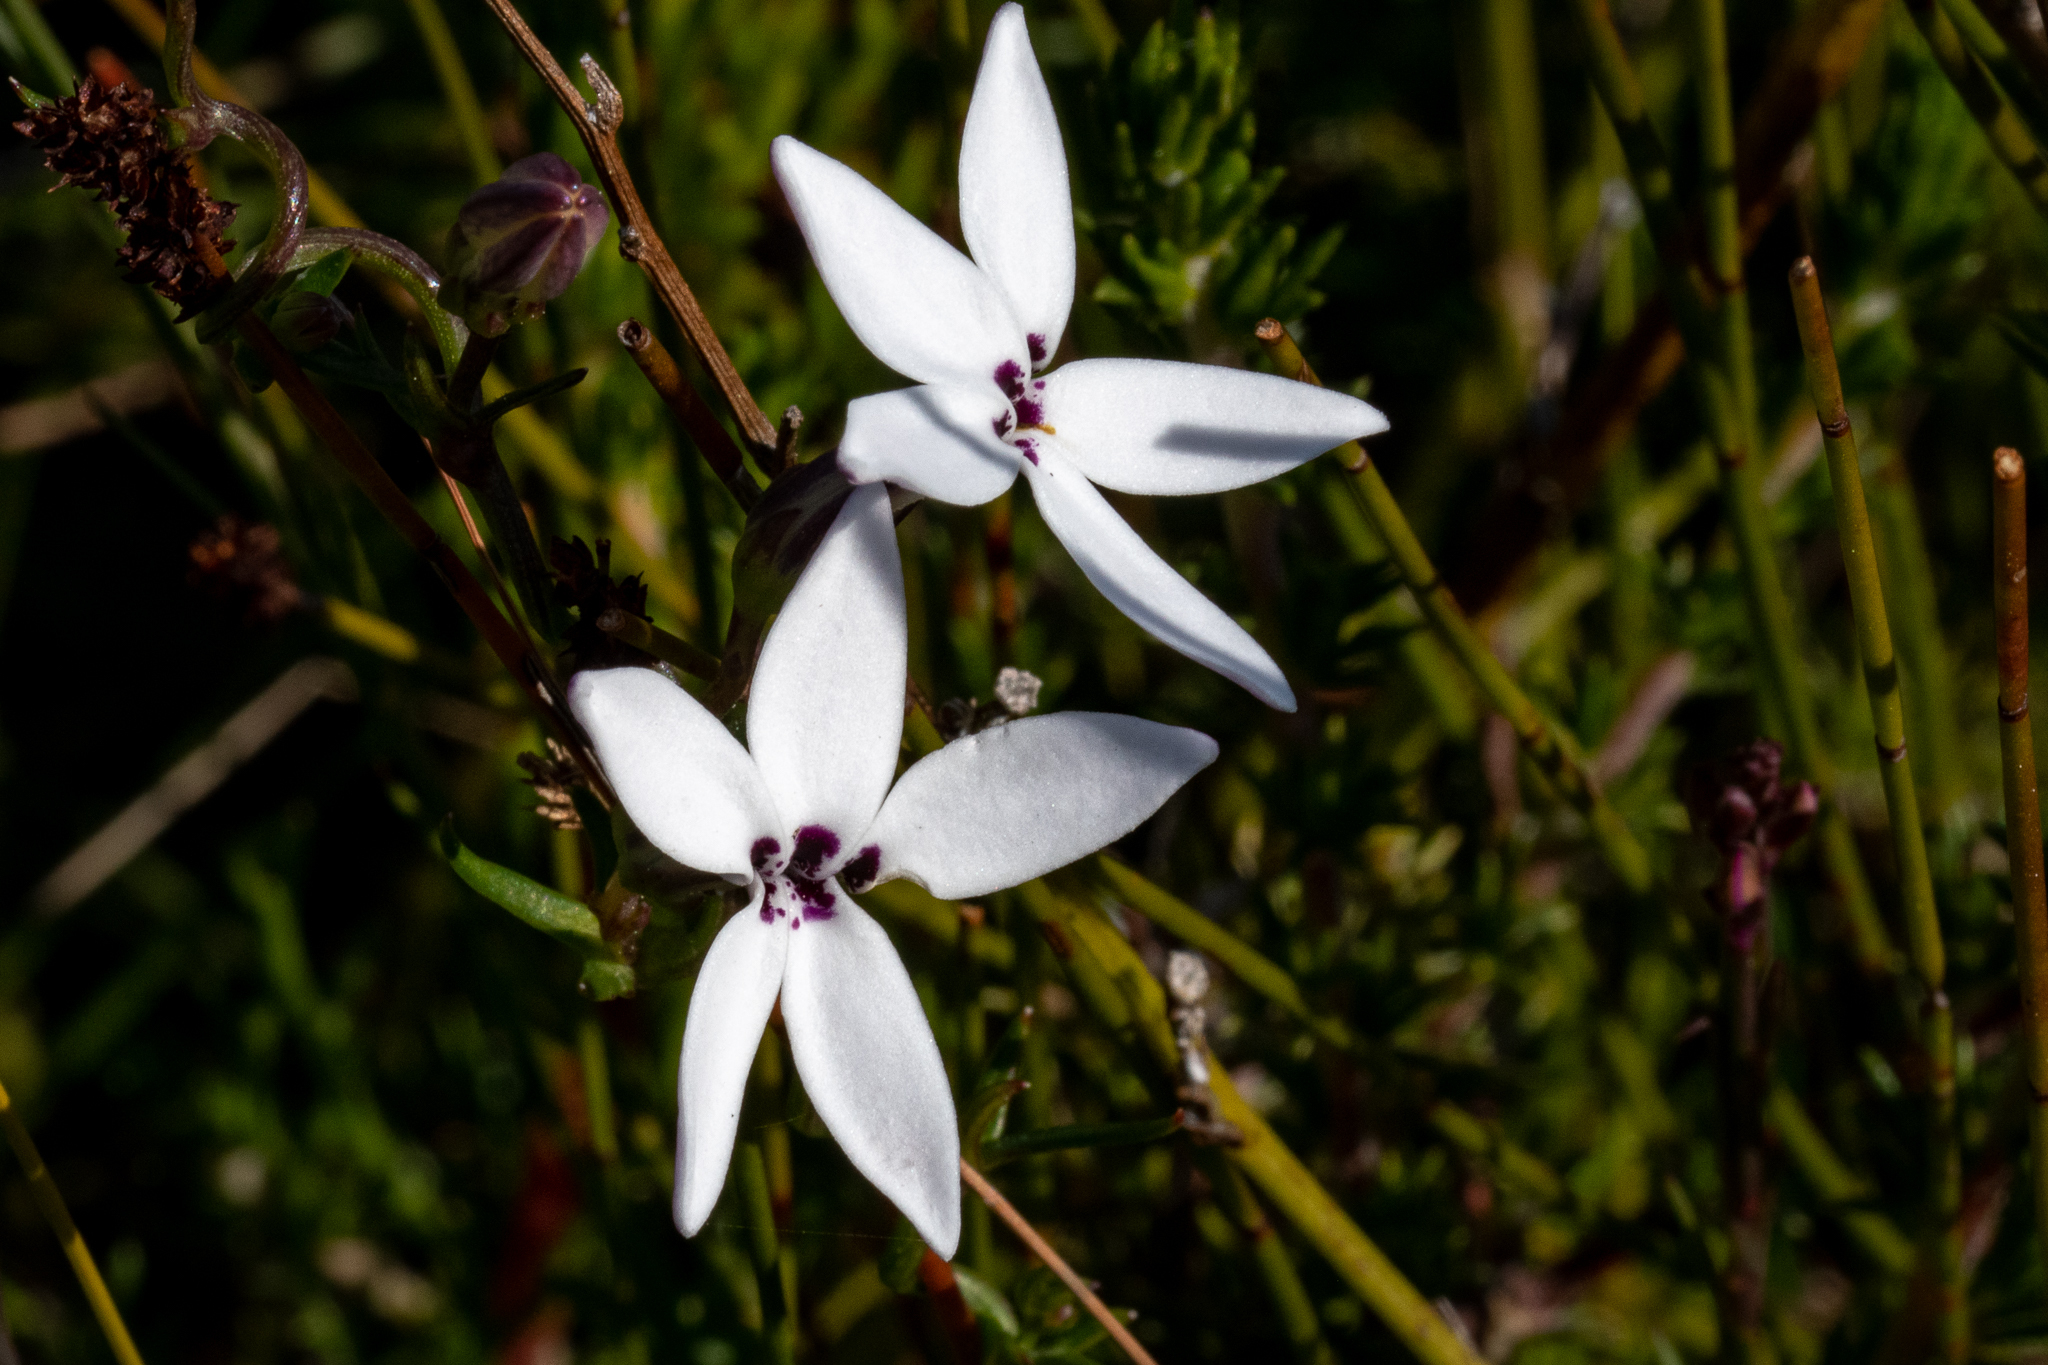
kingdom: Plantae
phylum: Tracheophyta
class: Magnoliopsida
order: Asterales
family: Campanulaceae
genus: Cyphia
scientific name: Cyphia volubilis
